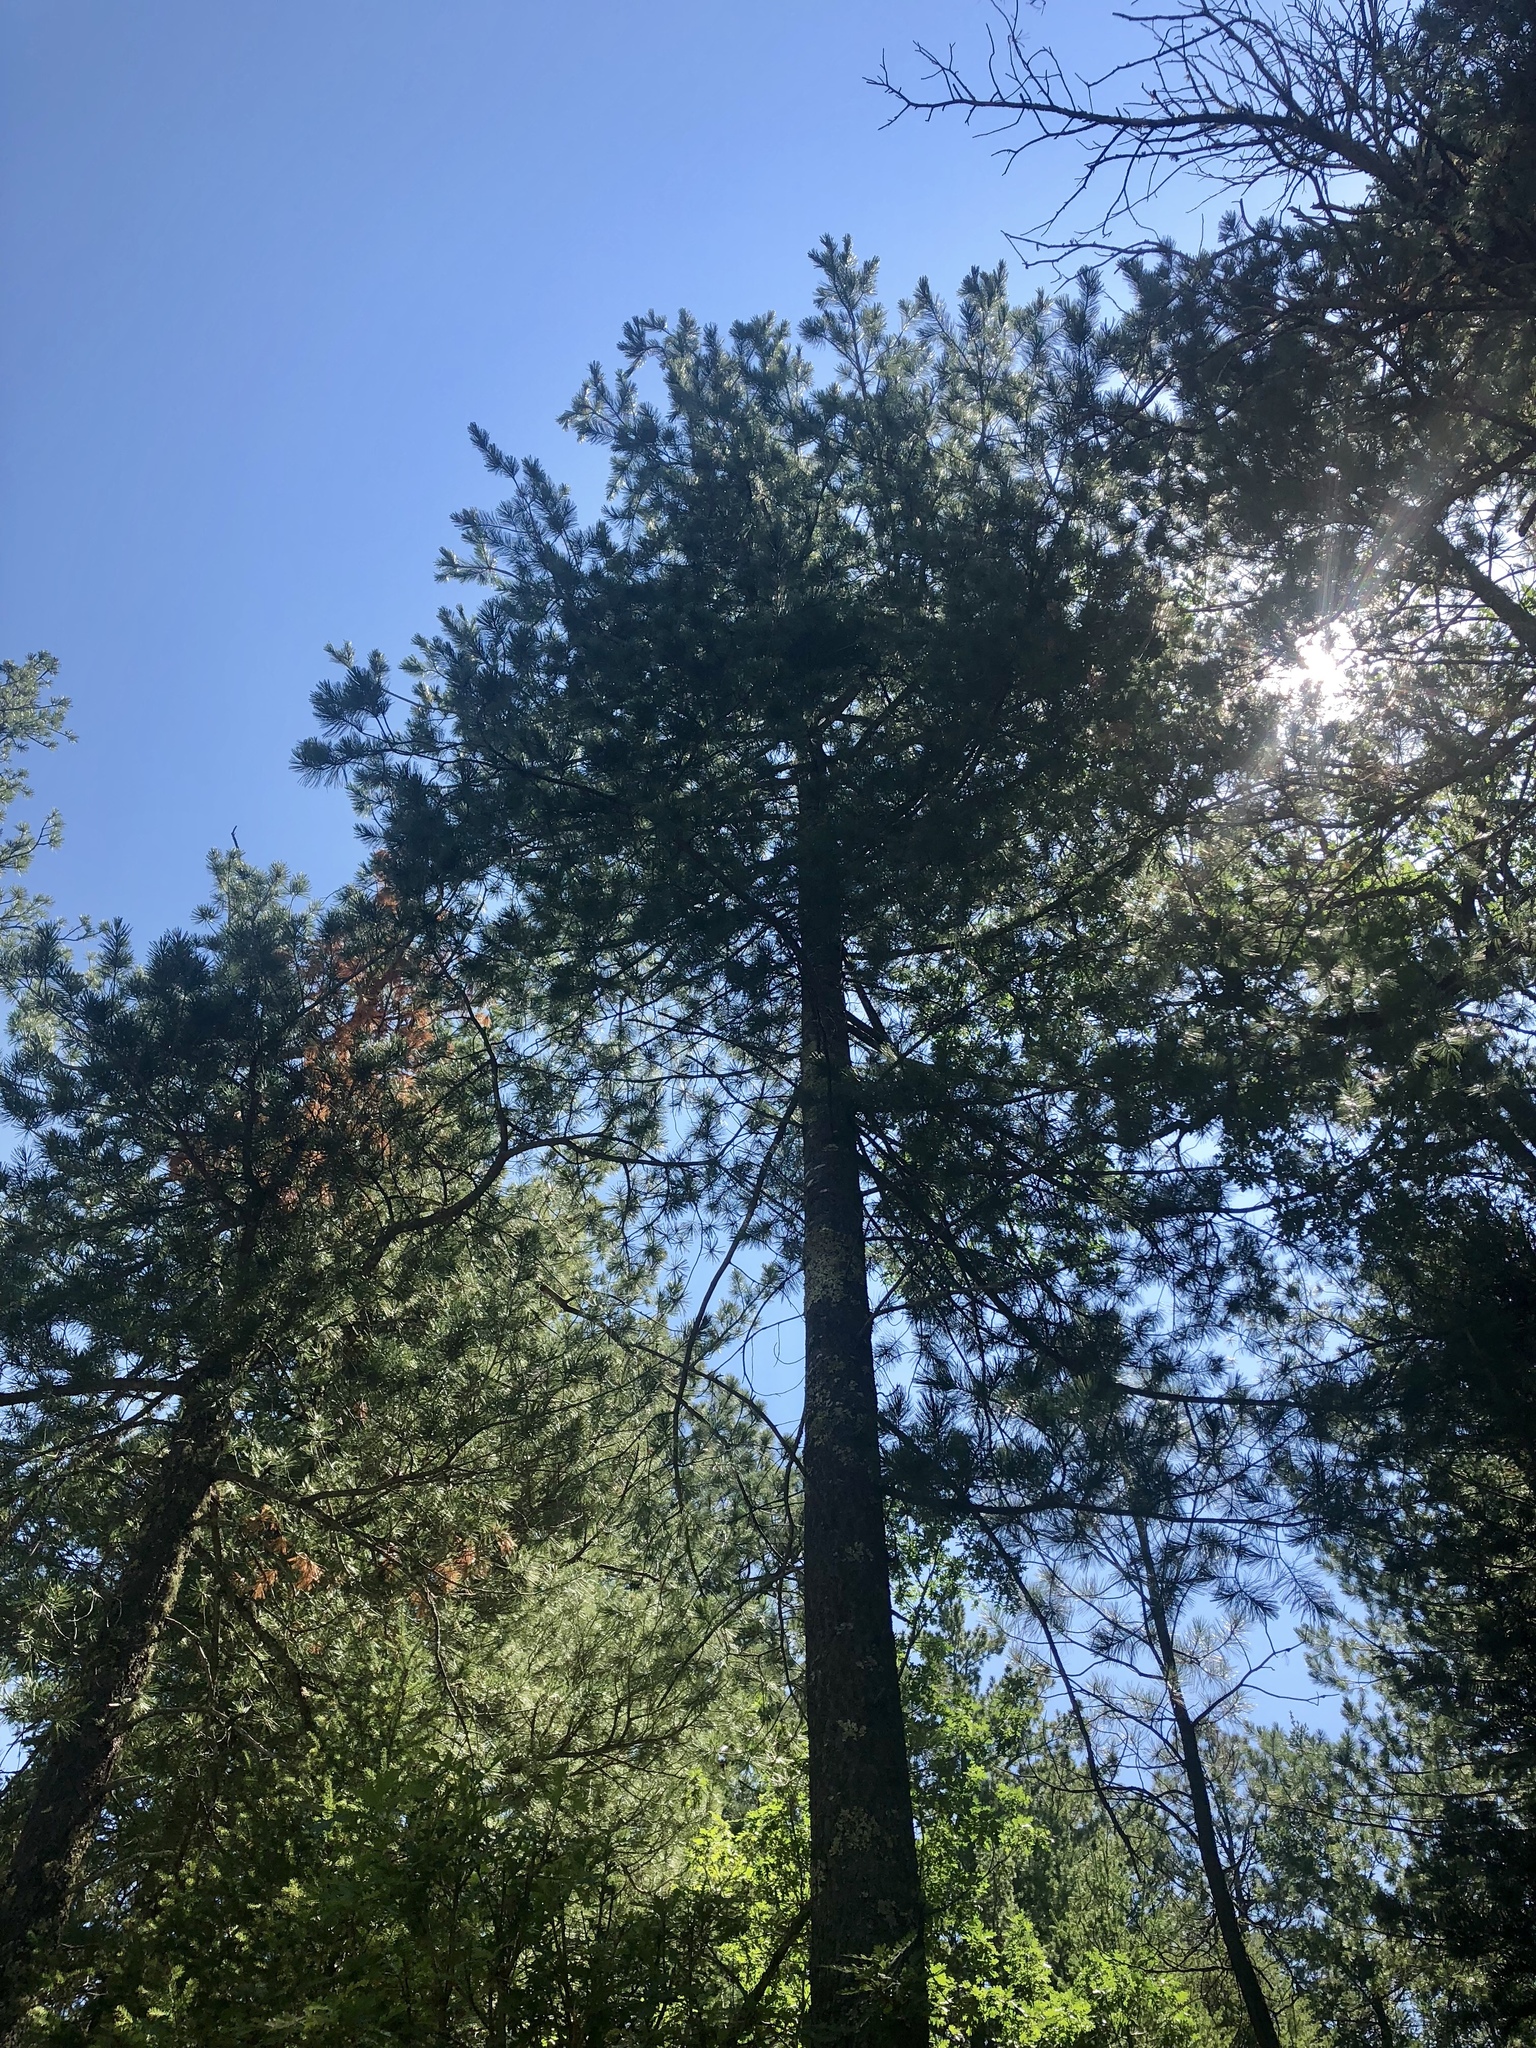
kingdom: Plantae
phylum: Tracheophyta
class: Pinopsida
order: Pinales
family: Pinaceae
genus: Pinus
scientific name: Pinus strobiformis
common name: Southwestern white pine
